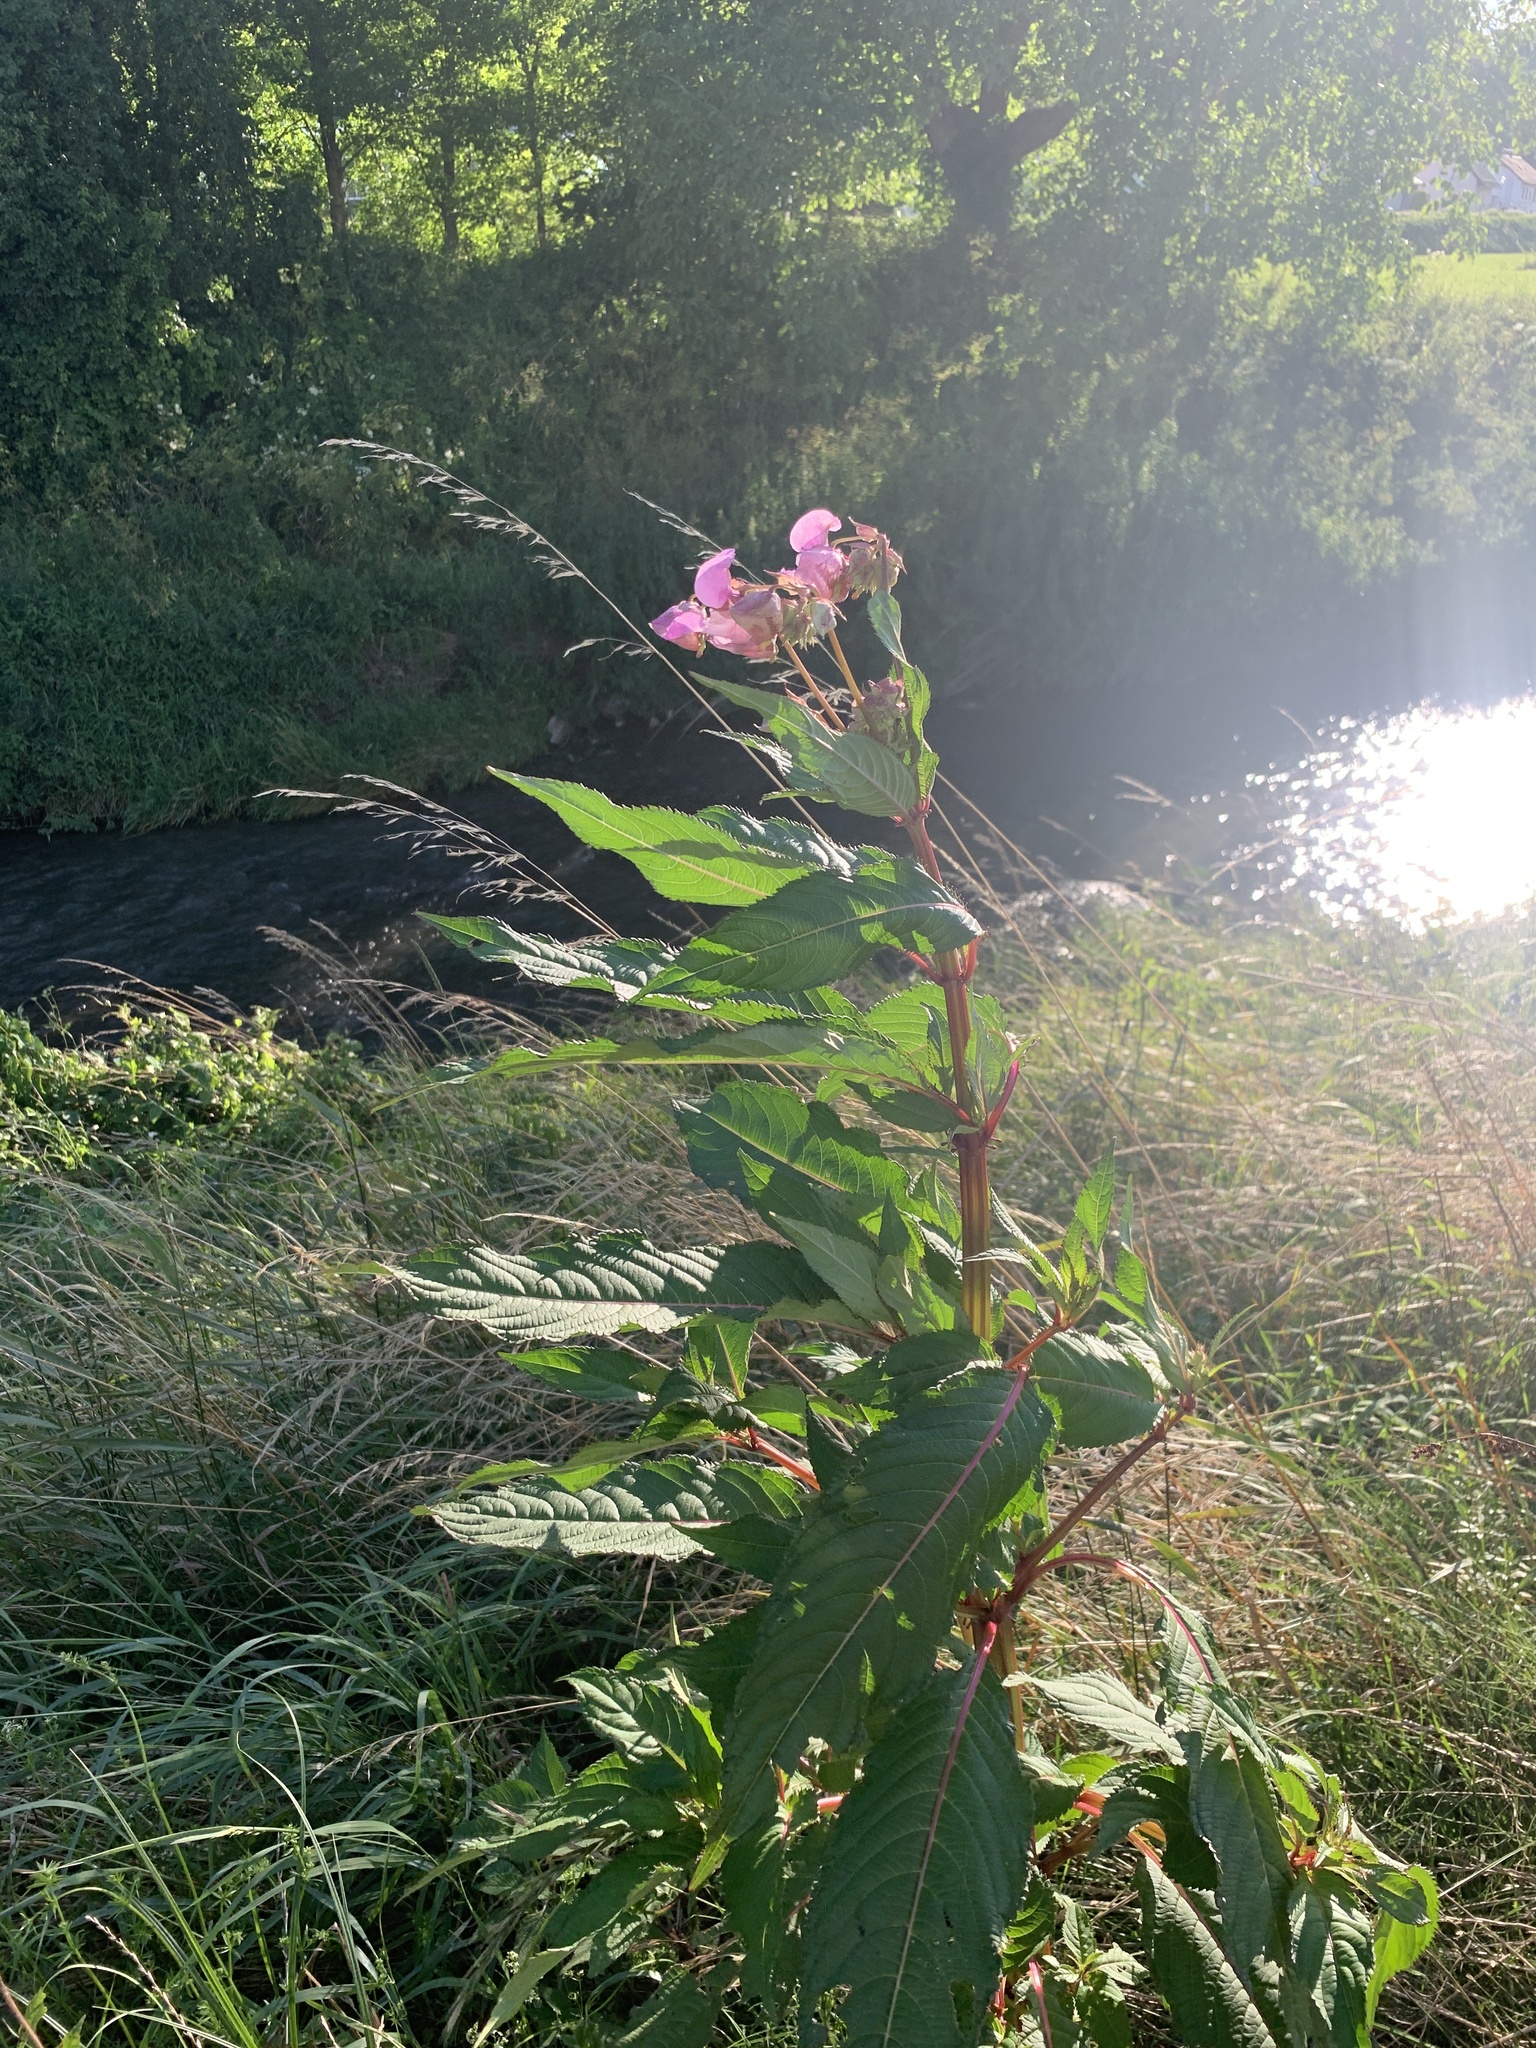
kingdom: Plantae
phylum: Tracheophyta
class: Magnoliopsida
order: Ericales
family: Balsaminaceae
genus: Impatiens
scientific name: Impatiens glandulifera
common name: Himalayan balsam
